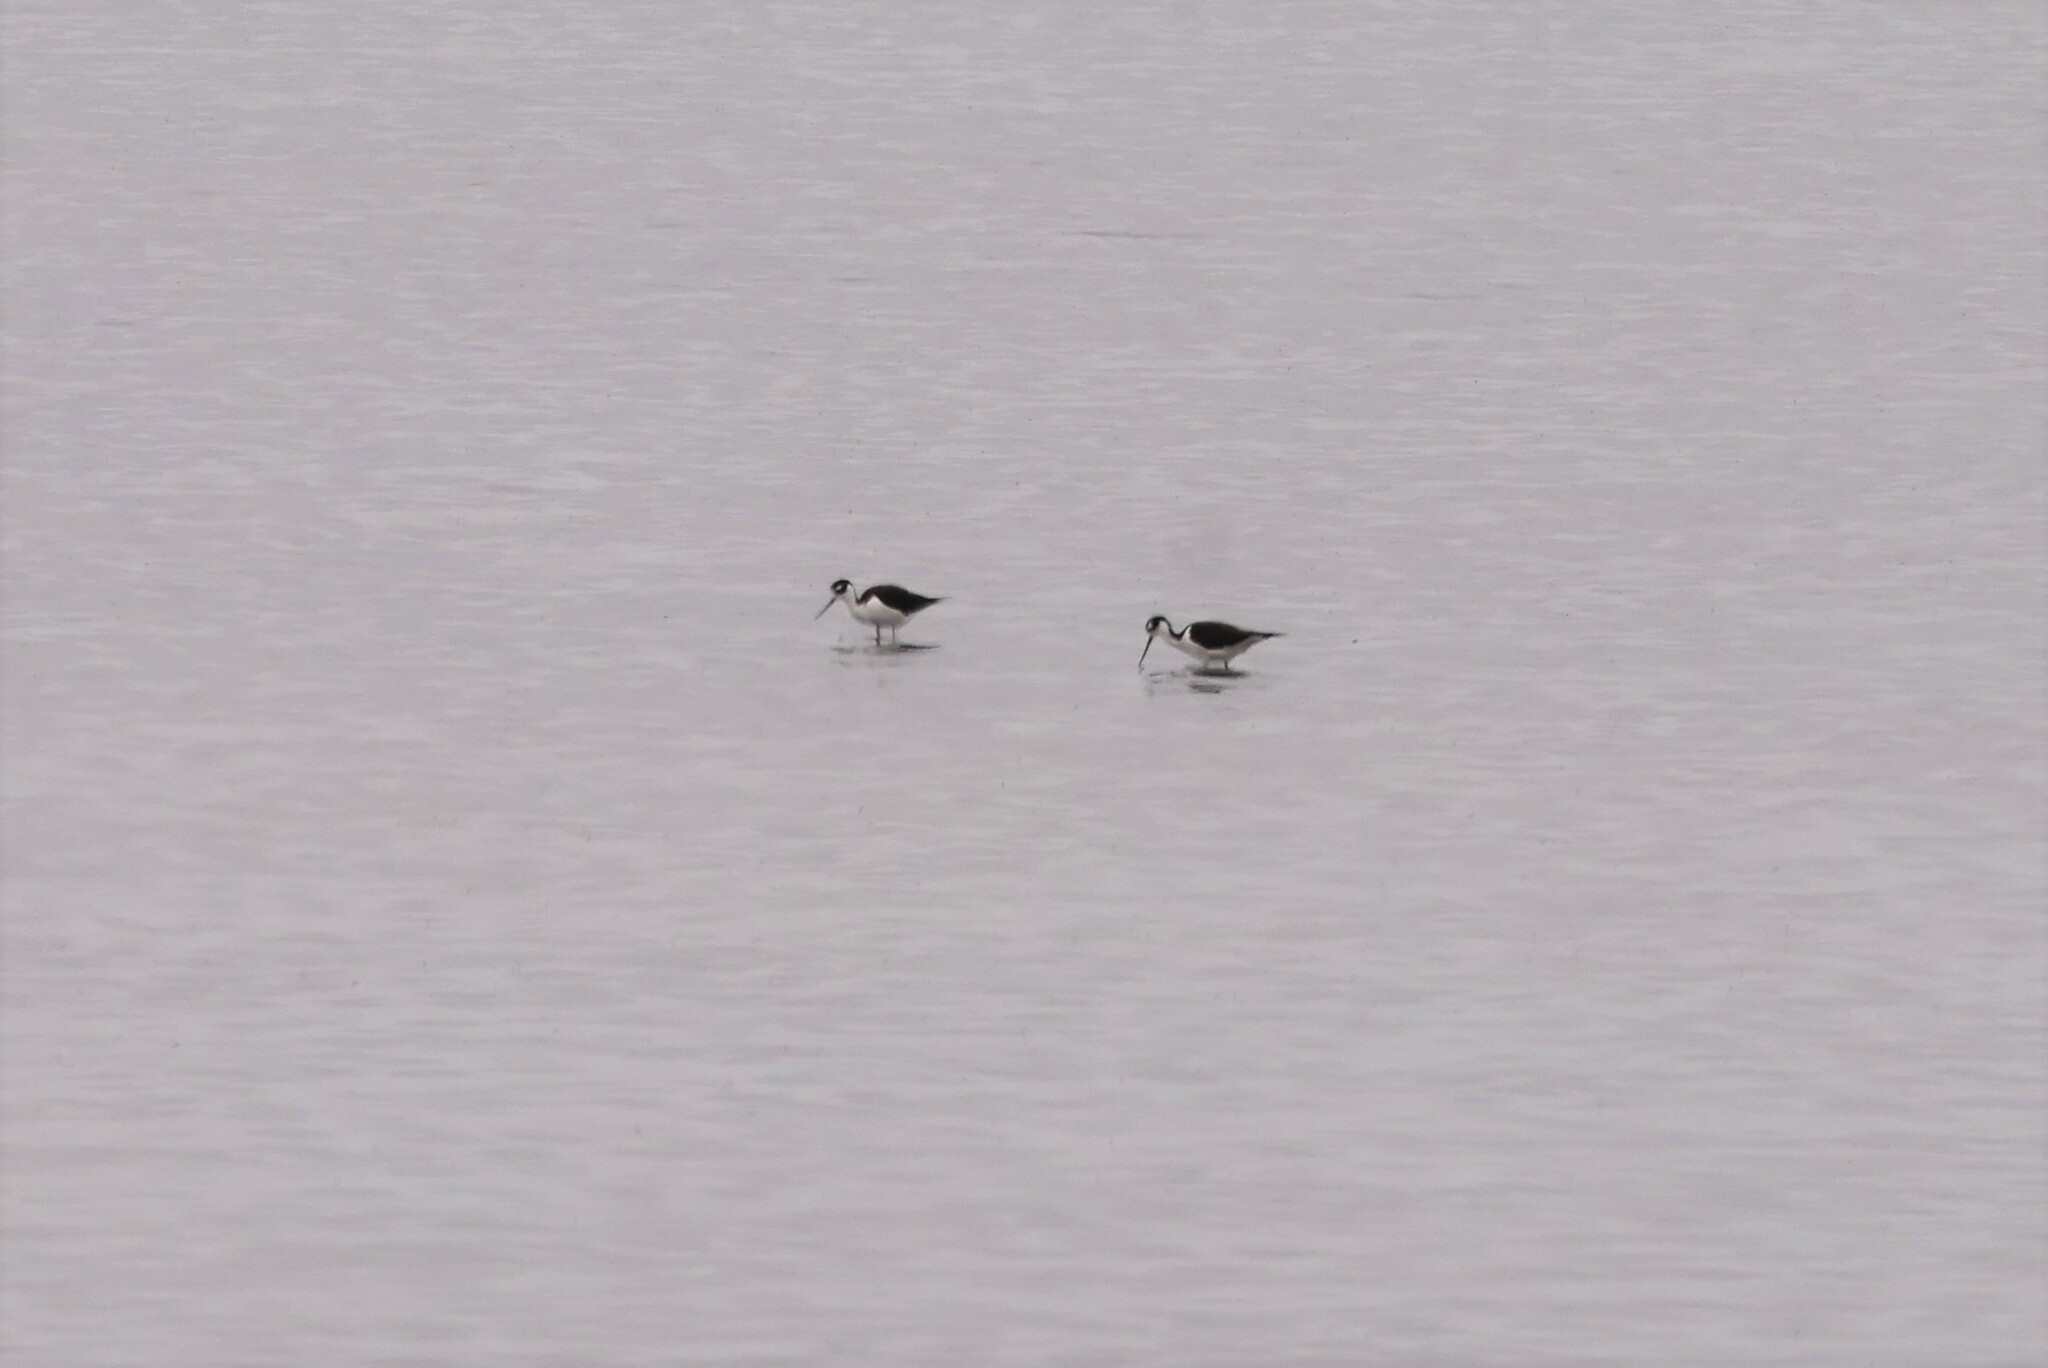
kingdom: Animalia
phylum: Chordata
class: Aves
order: Charadriiformes
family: Recurvirostridae
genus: Himantopus
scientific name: Himantopus mexicanus
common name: Black-necked stilt
